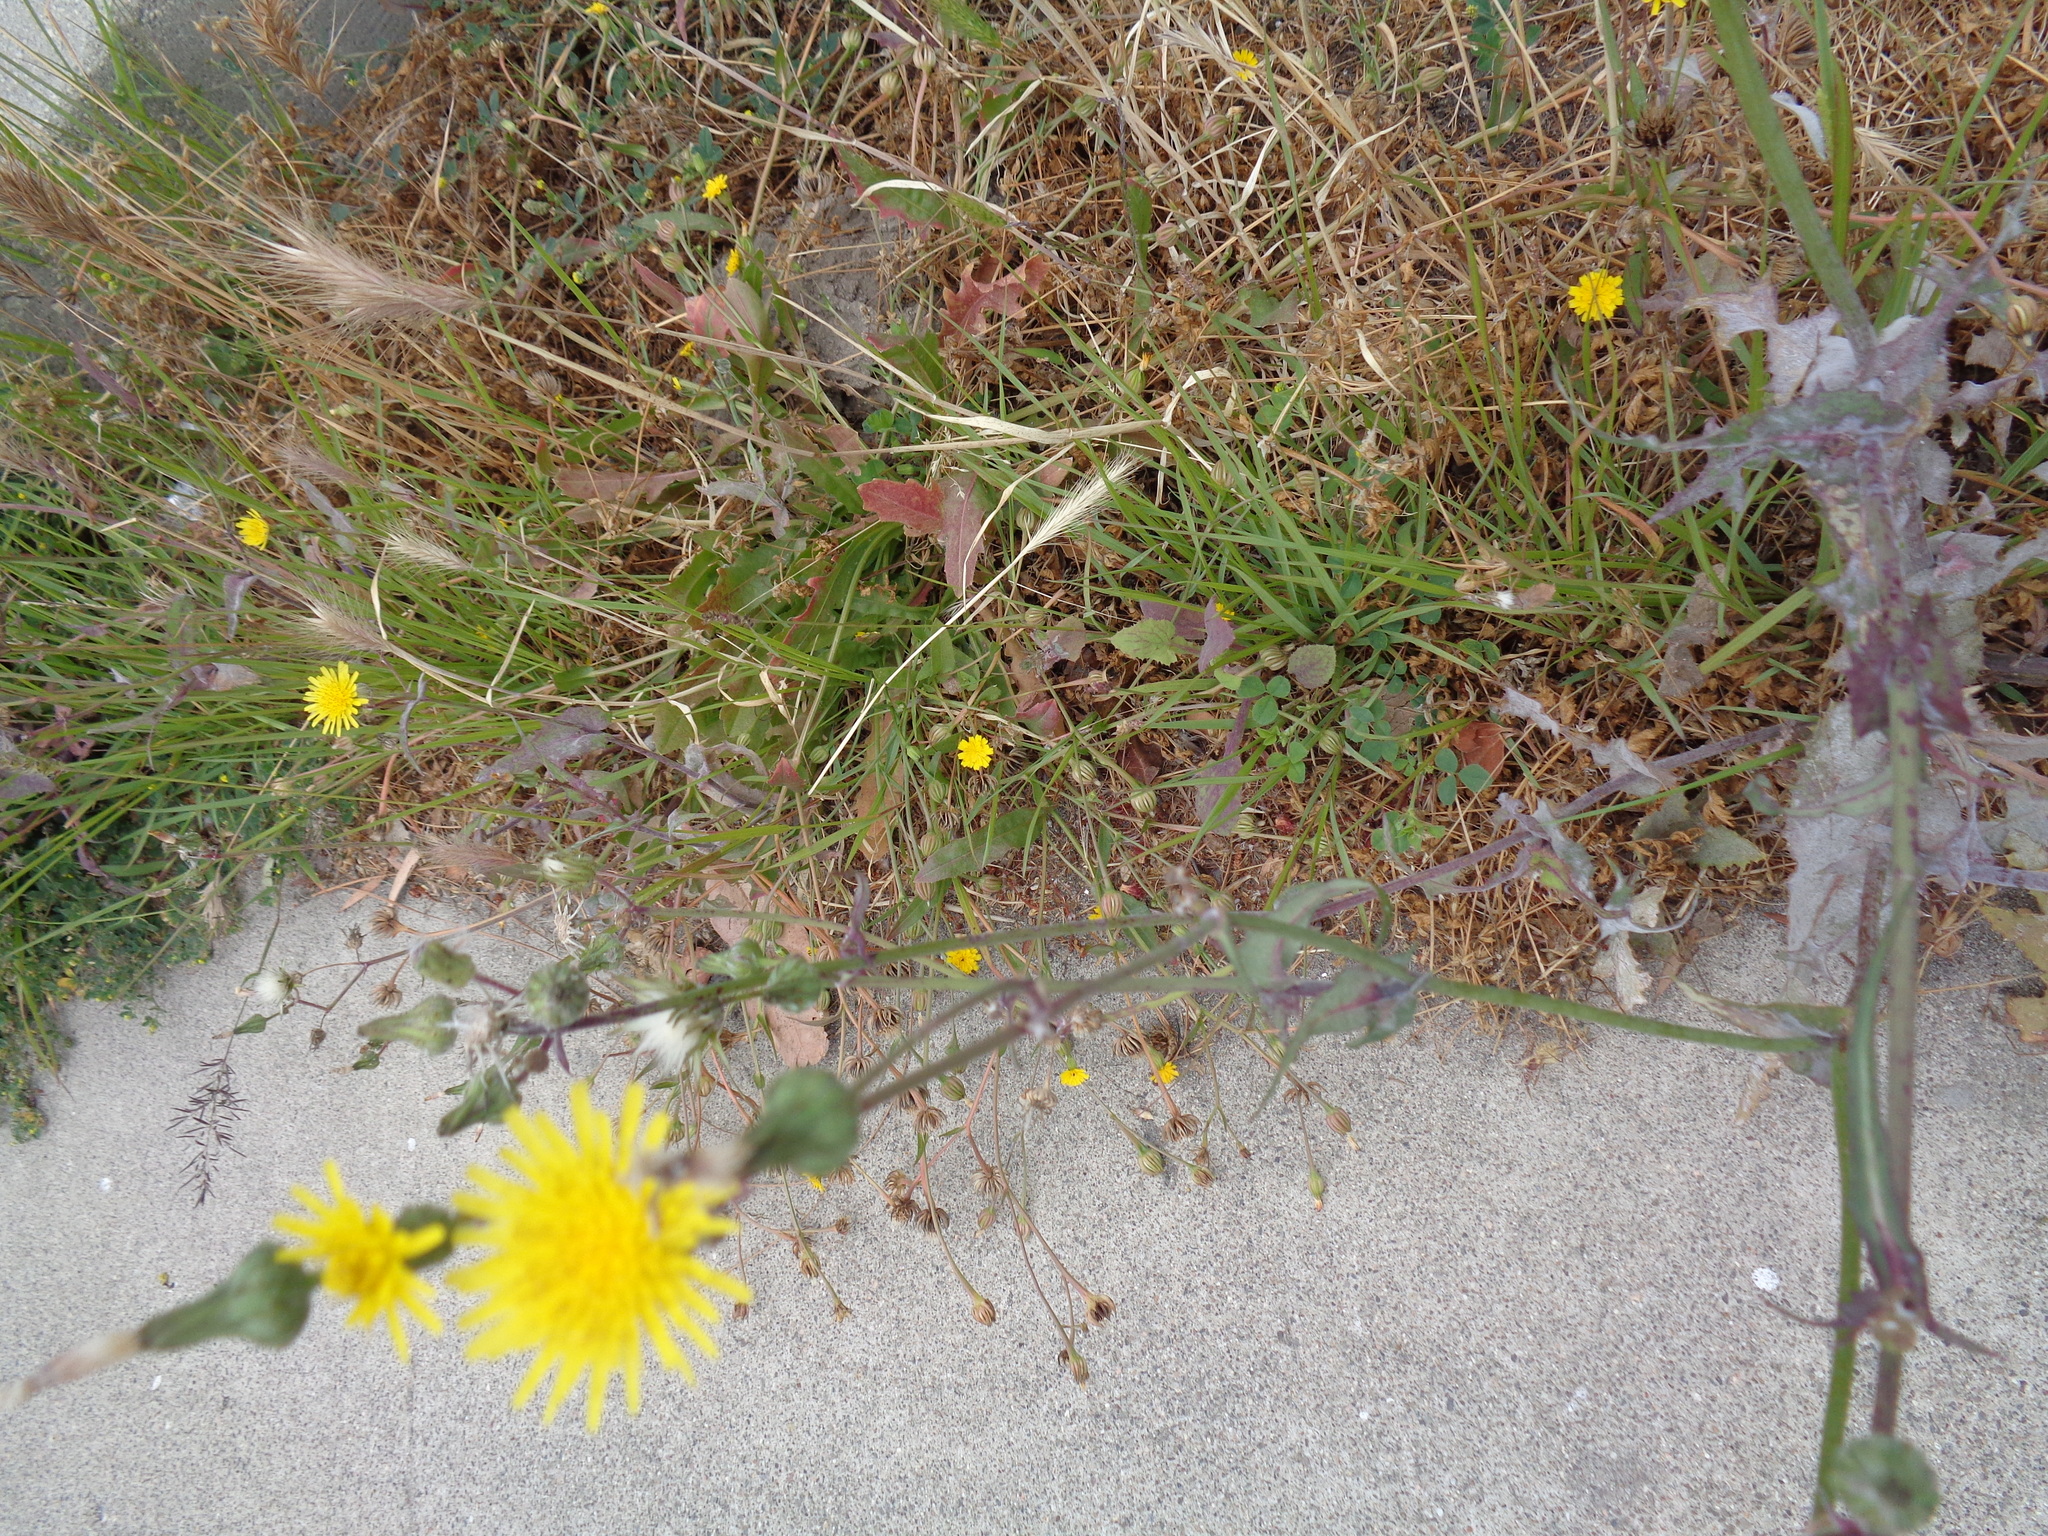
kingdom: Plantae
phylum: Tracheophyta
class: Magnoliopsida
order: Asterales
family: Asteraceae
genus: Sonchus
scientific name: Sonchus oleraceus
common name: Common sowthistle
